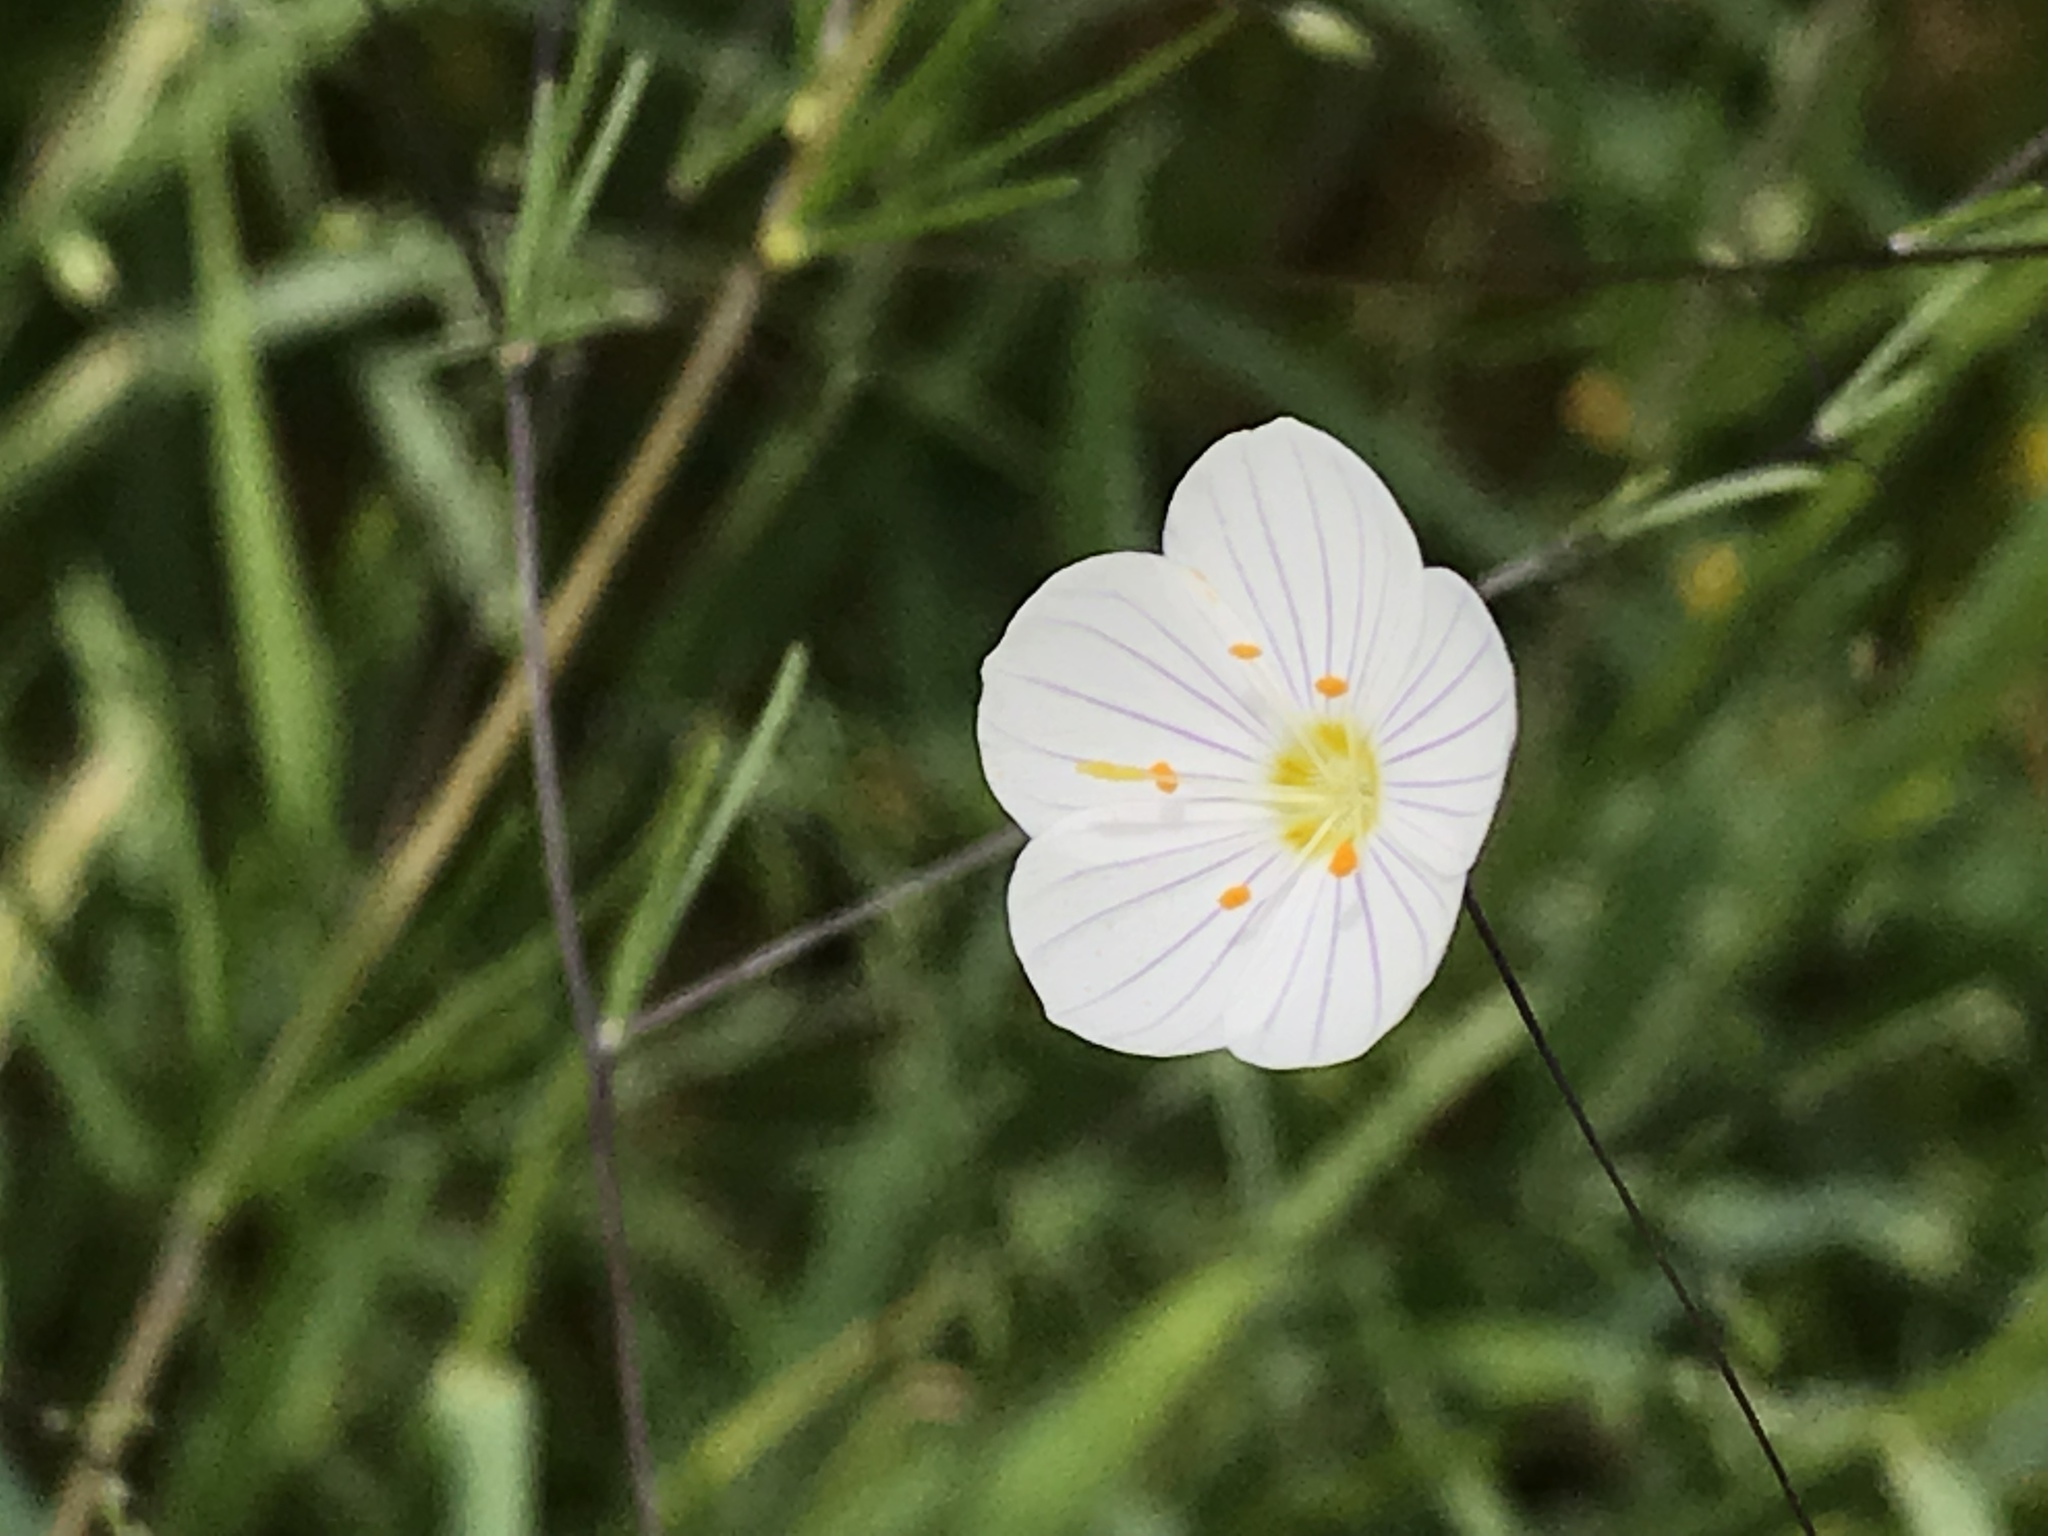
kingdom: Plantae
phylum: Tracheophyta
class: Magnoliopsida
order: Ericales
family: Polemoniaceae
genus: Leptosiphon
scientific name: Leptosiphon liniflorus
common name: Narrowflower flaxflower
